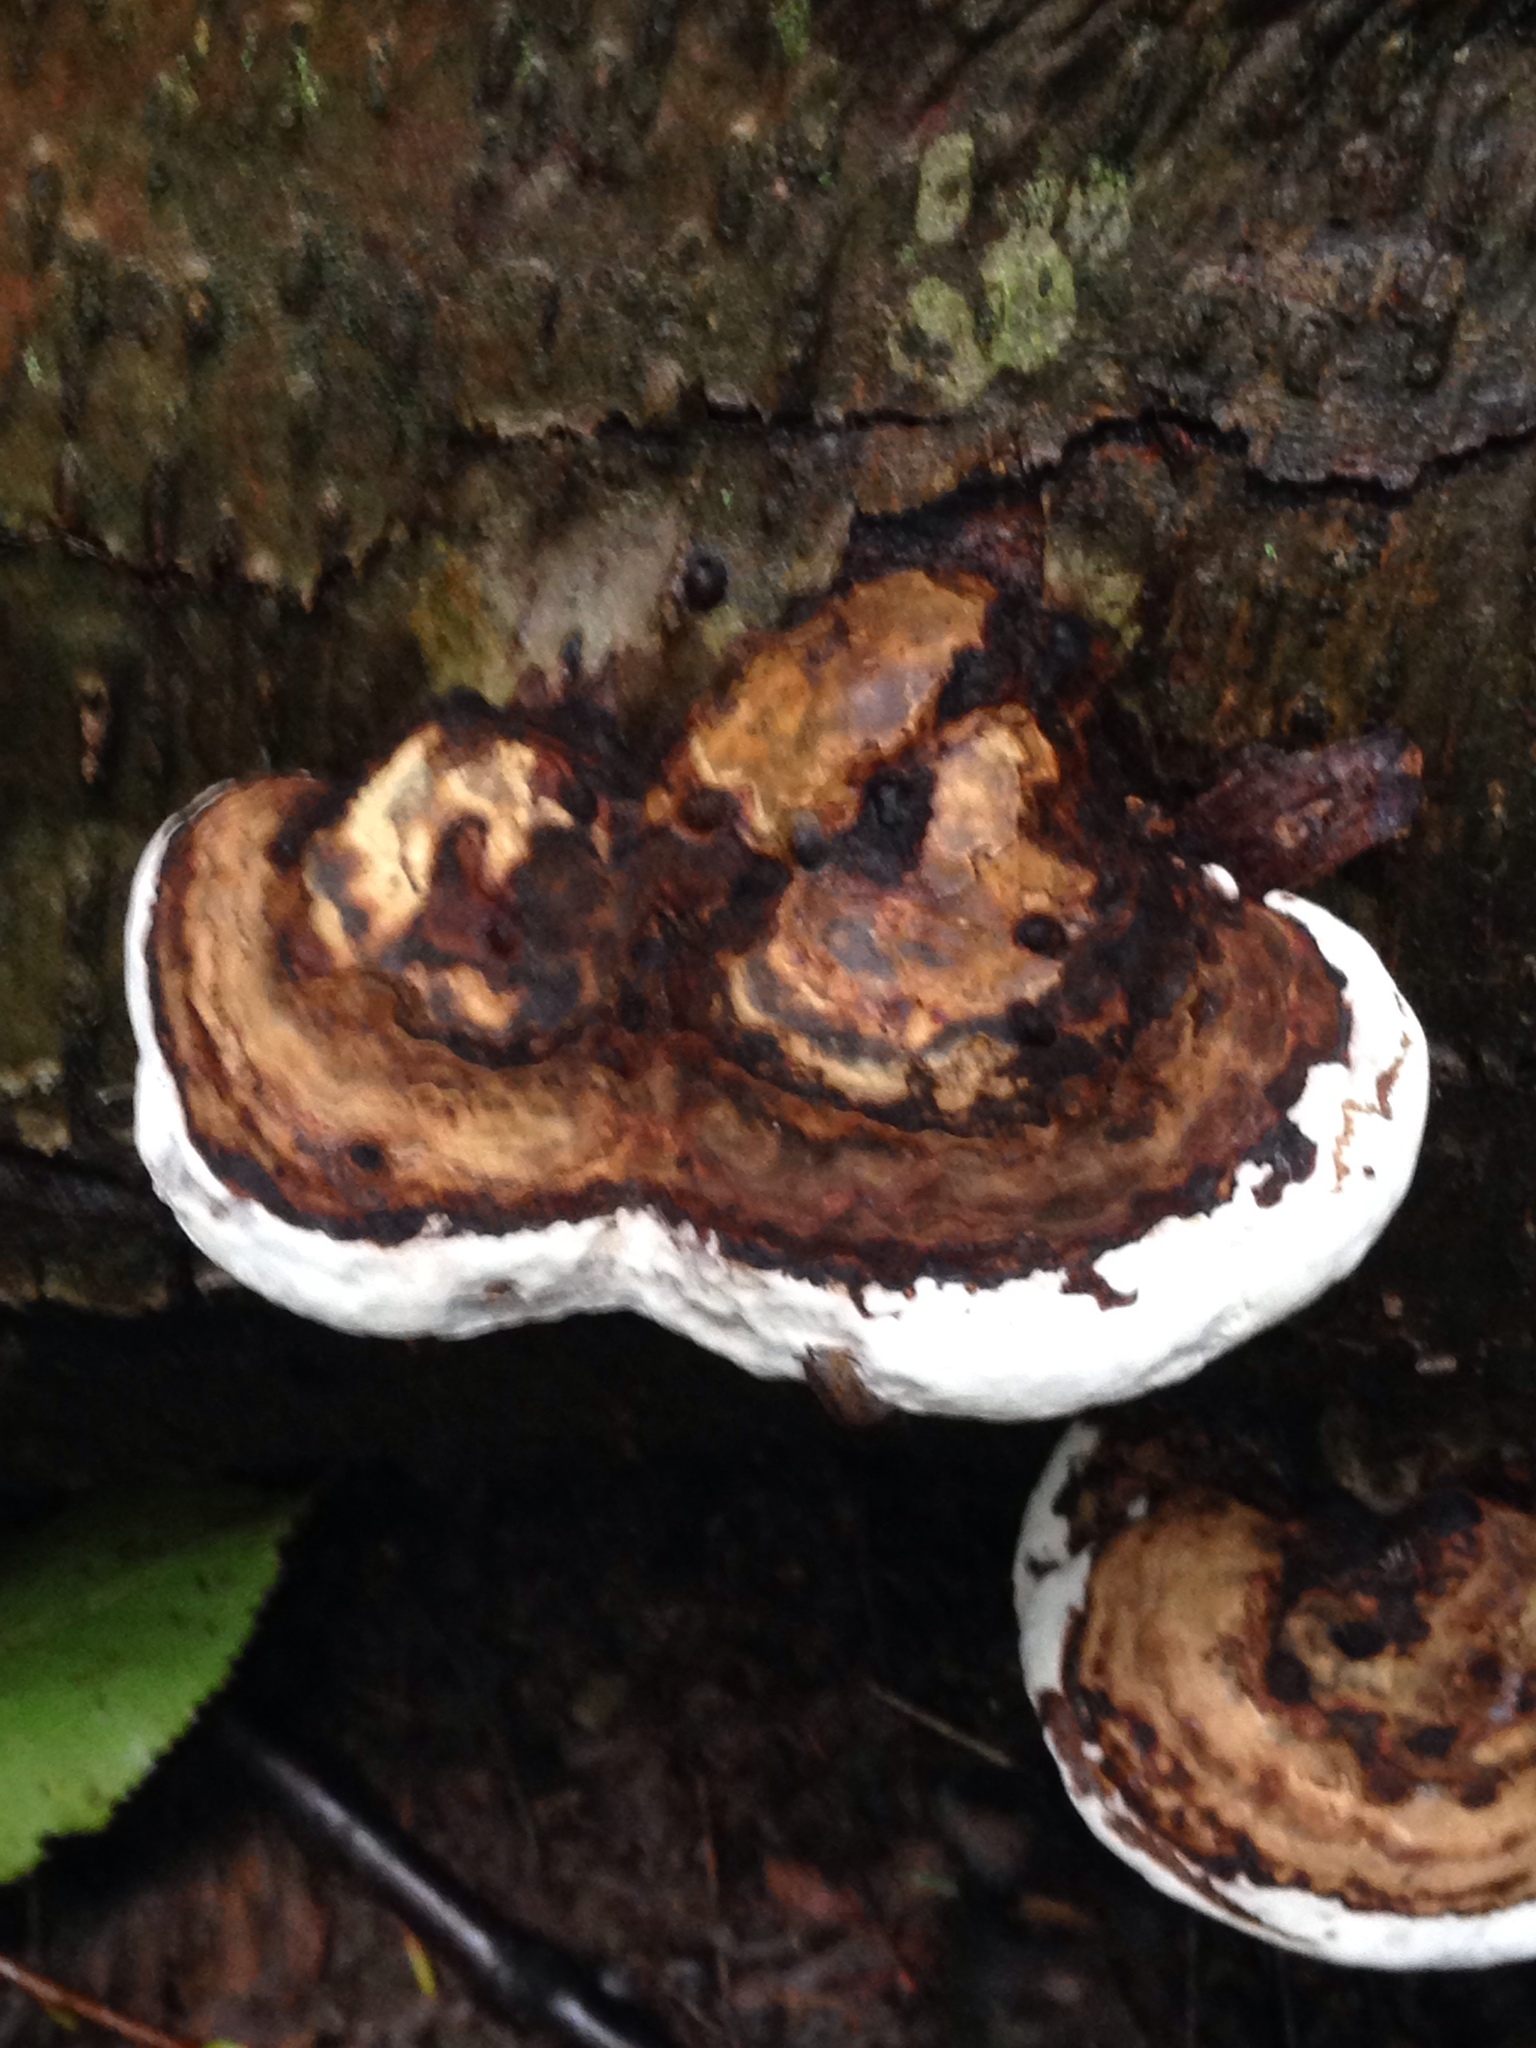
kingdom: Fungi
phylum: Basidiomycota
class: Agaricomycetes
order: Polyporales
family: Polyporaceae
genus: Ganoderma
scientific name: Ganoderma applanatum
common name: Artist's bracket
